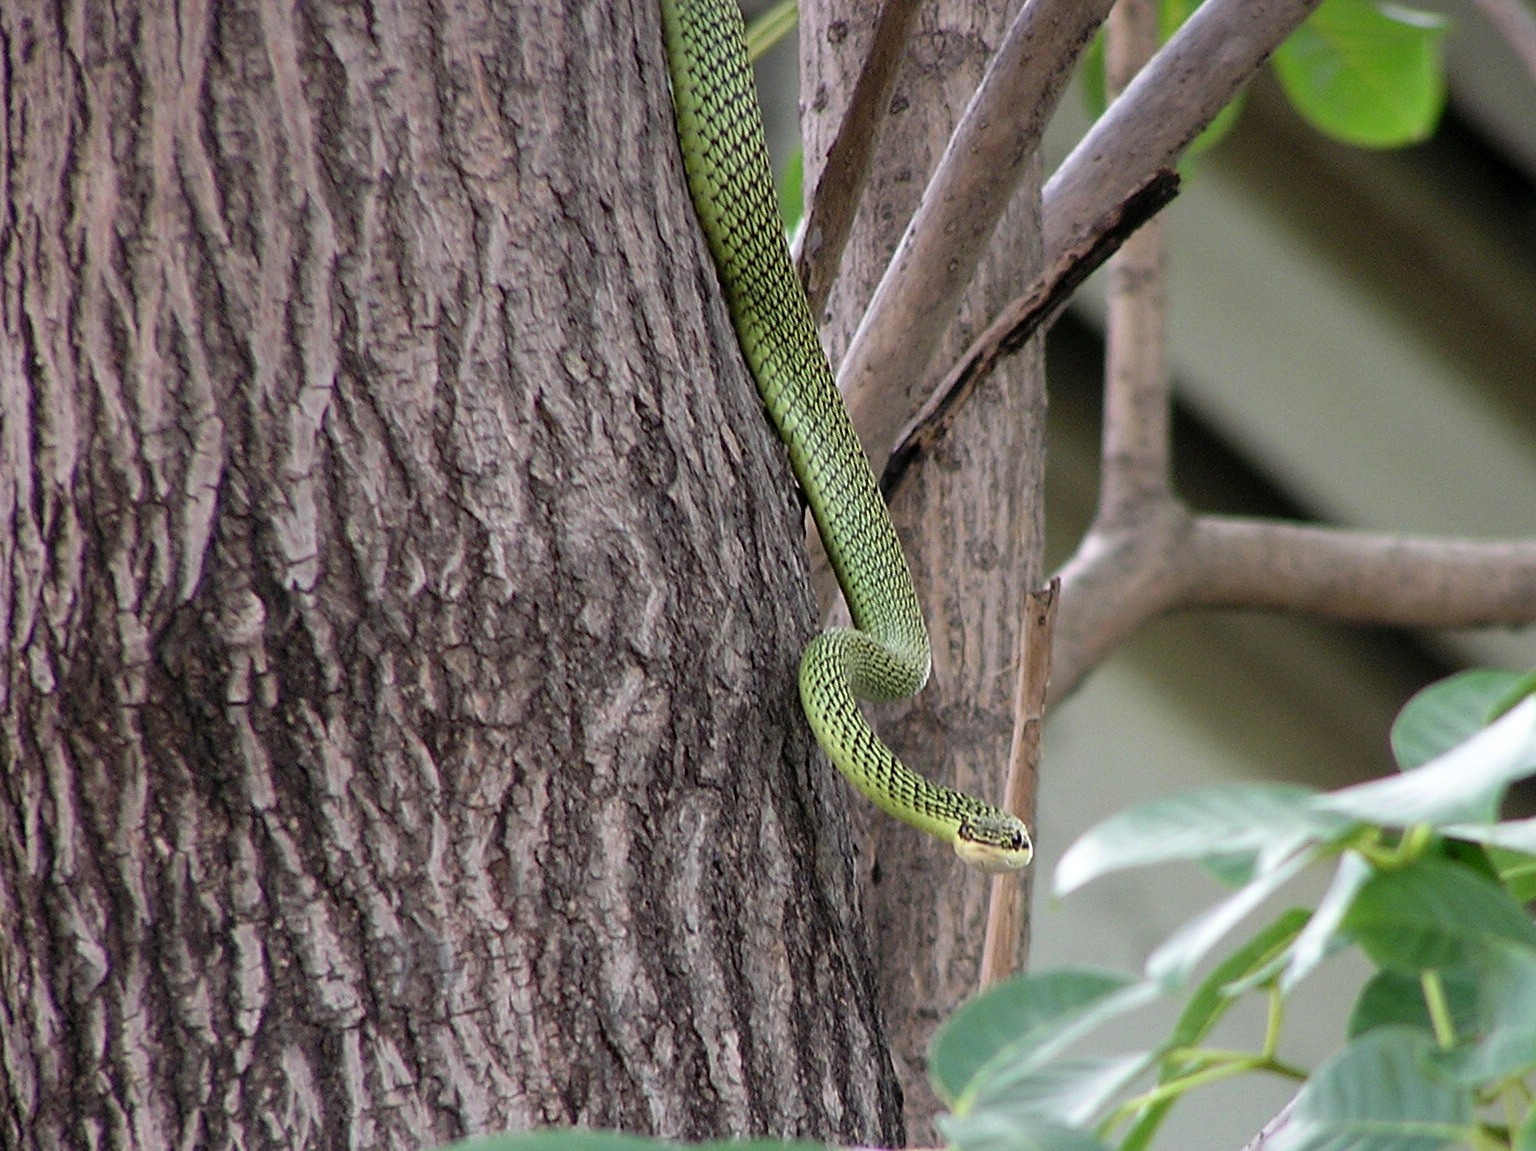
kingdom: Animalia
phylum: Chordata
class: Squamata
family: Colubridae
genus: Chrysopelea
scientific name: Chrysopelea ornata
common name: Golden flying snake
